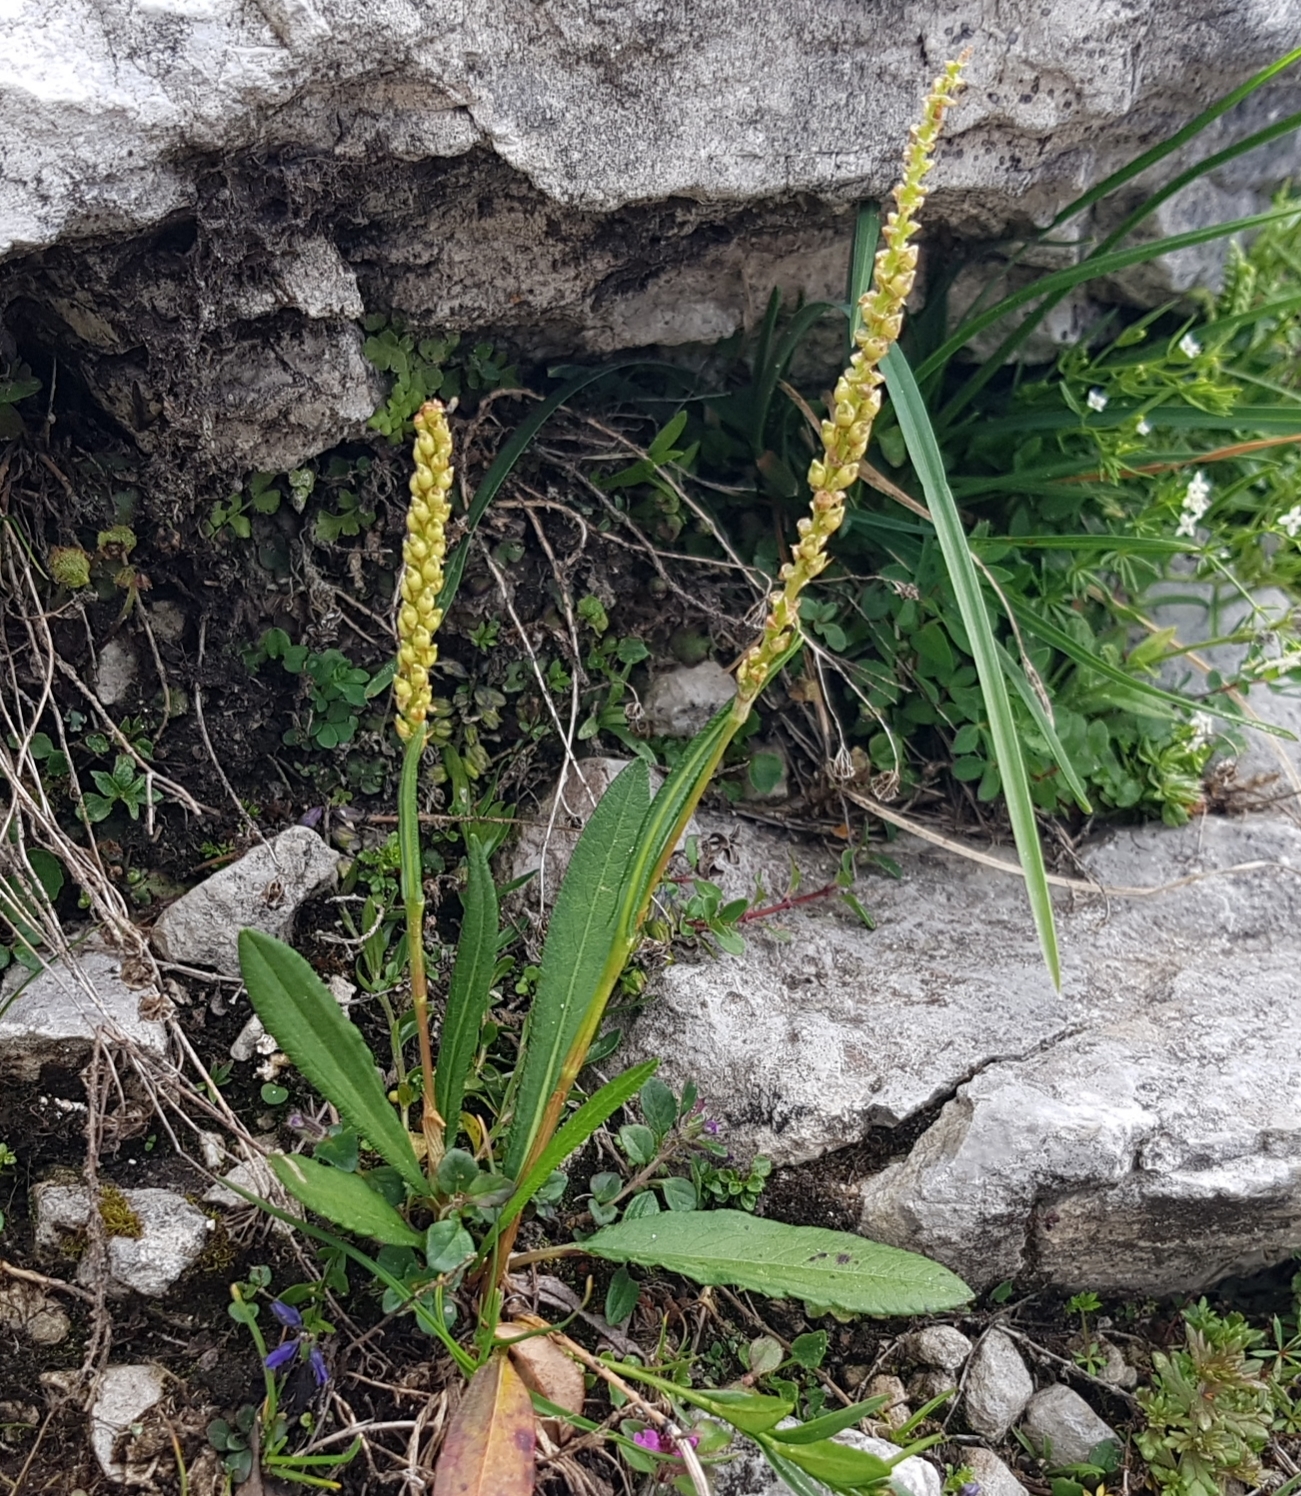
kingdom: Plantae
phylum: Tracheophyta
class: Magnoliopsida
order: Caryophyllales
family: Polygonaceae
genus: Bistorta
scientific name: Bistorta vivipara
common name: Alpine bistort
